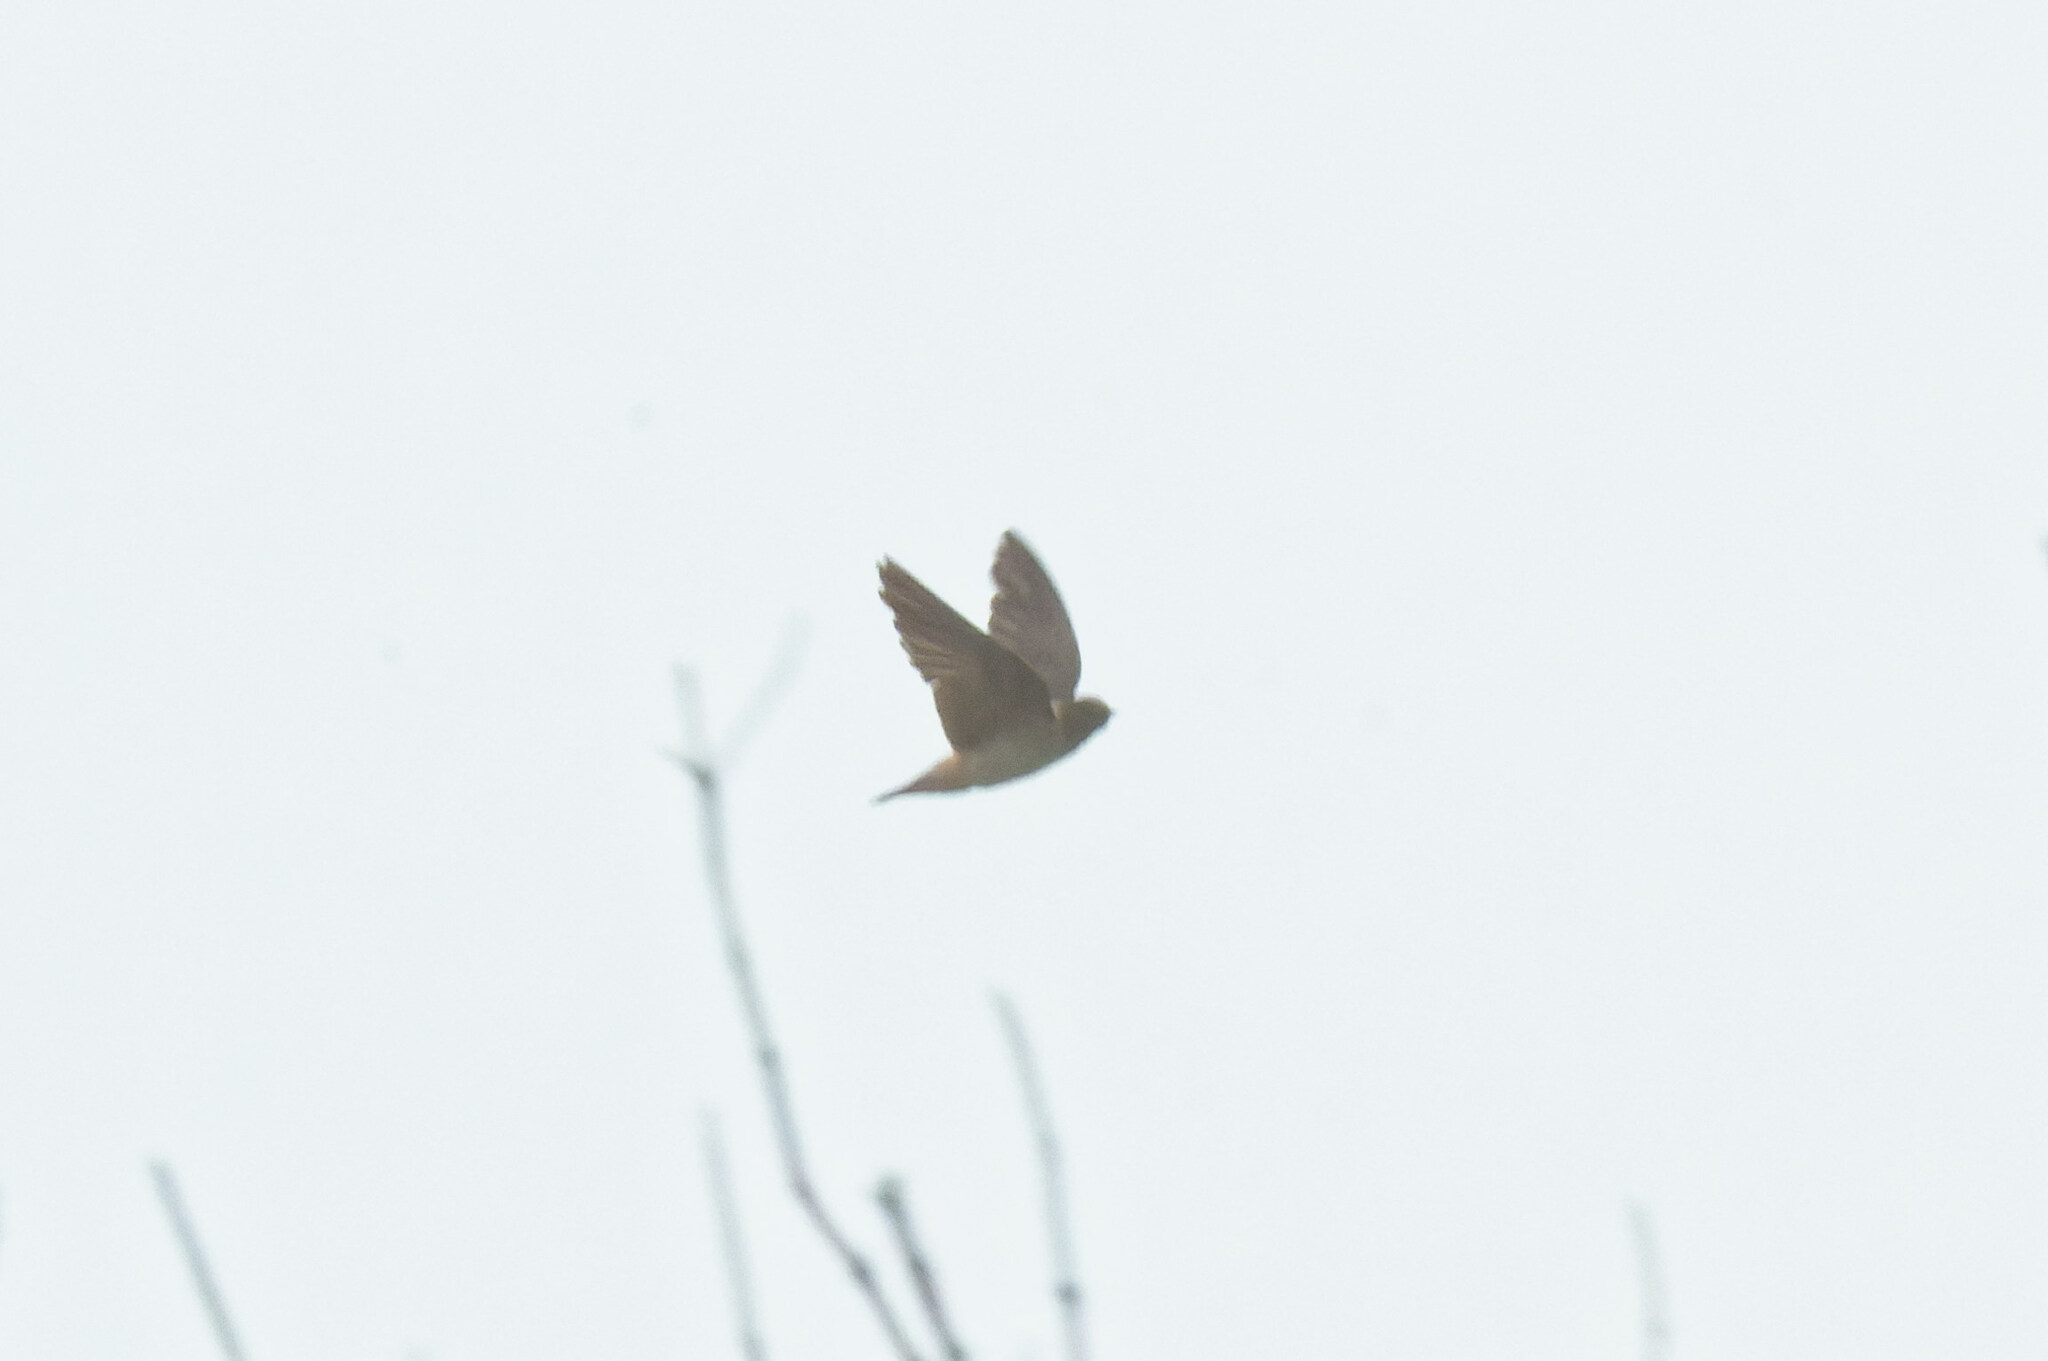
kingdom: Animalia
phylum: Chordata
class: Aves
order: Passeriformes
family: Hirundinidae
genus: Petrochelidon
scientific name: Petrochelidon pyrrhonota
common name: American cliff swallow
